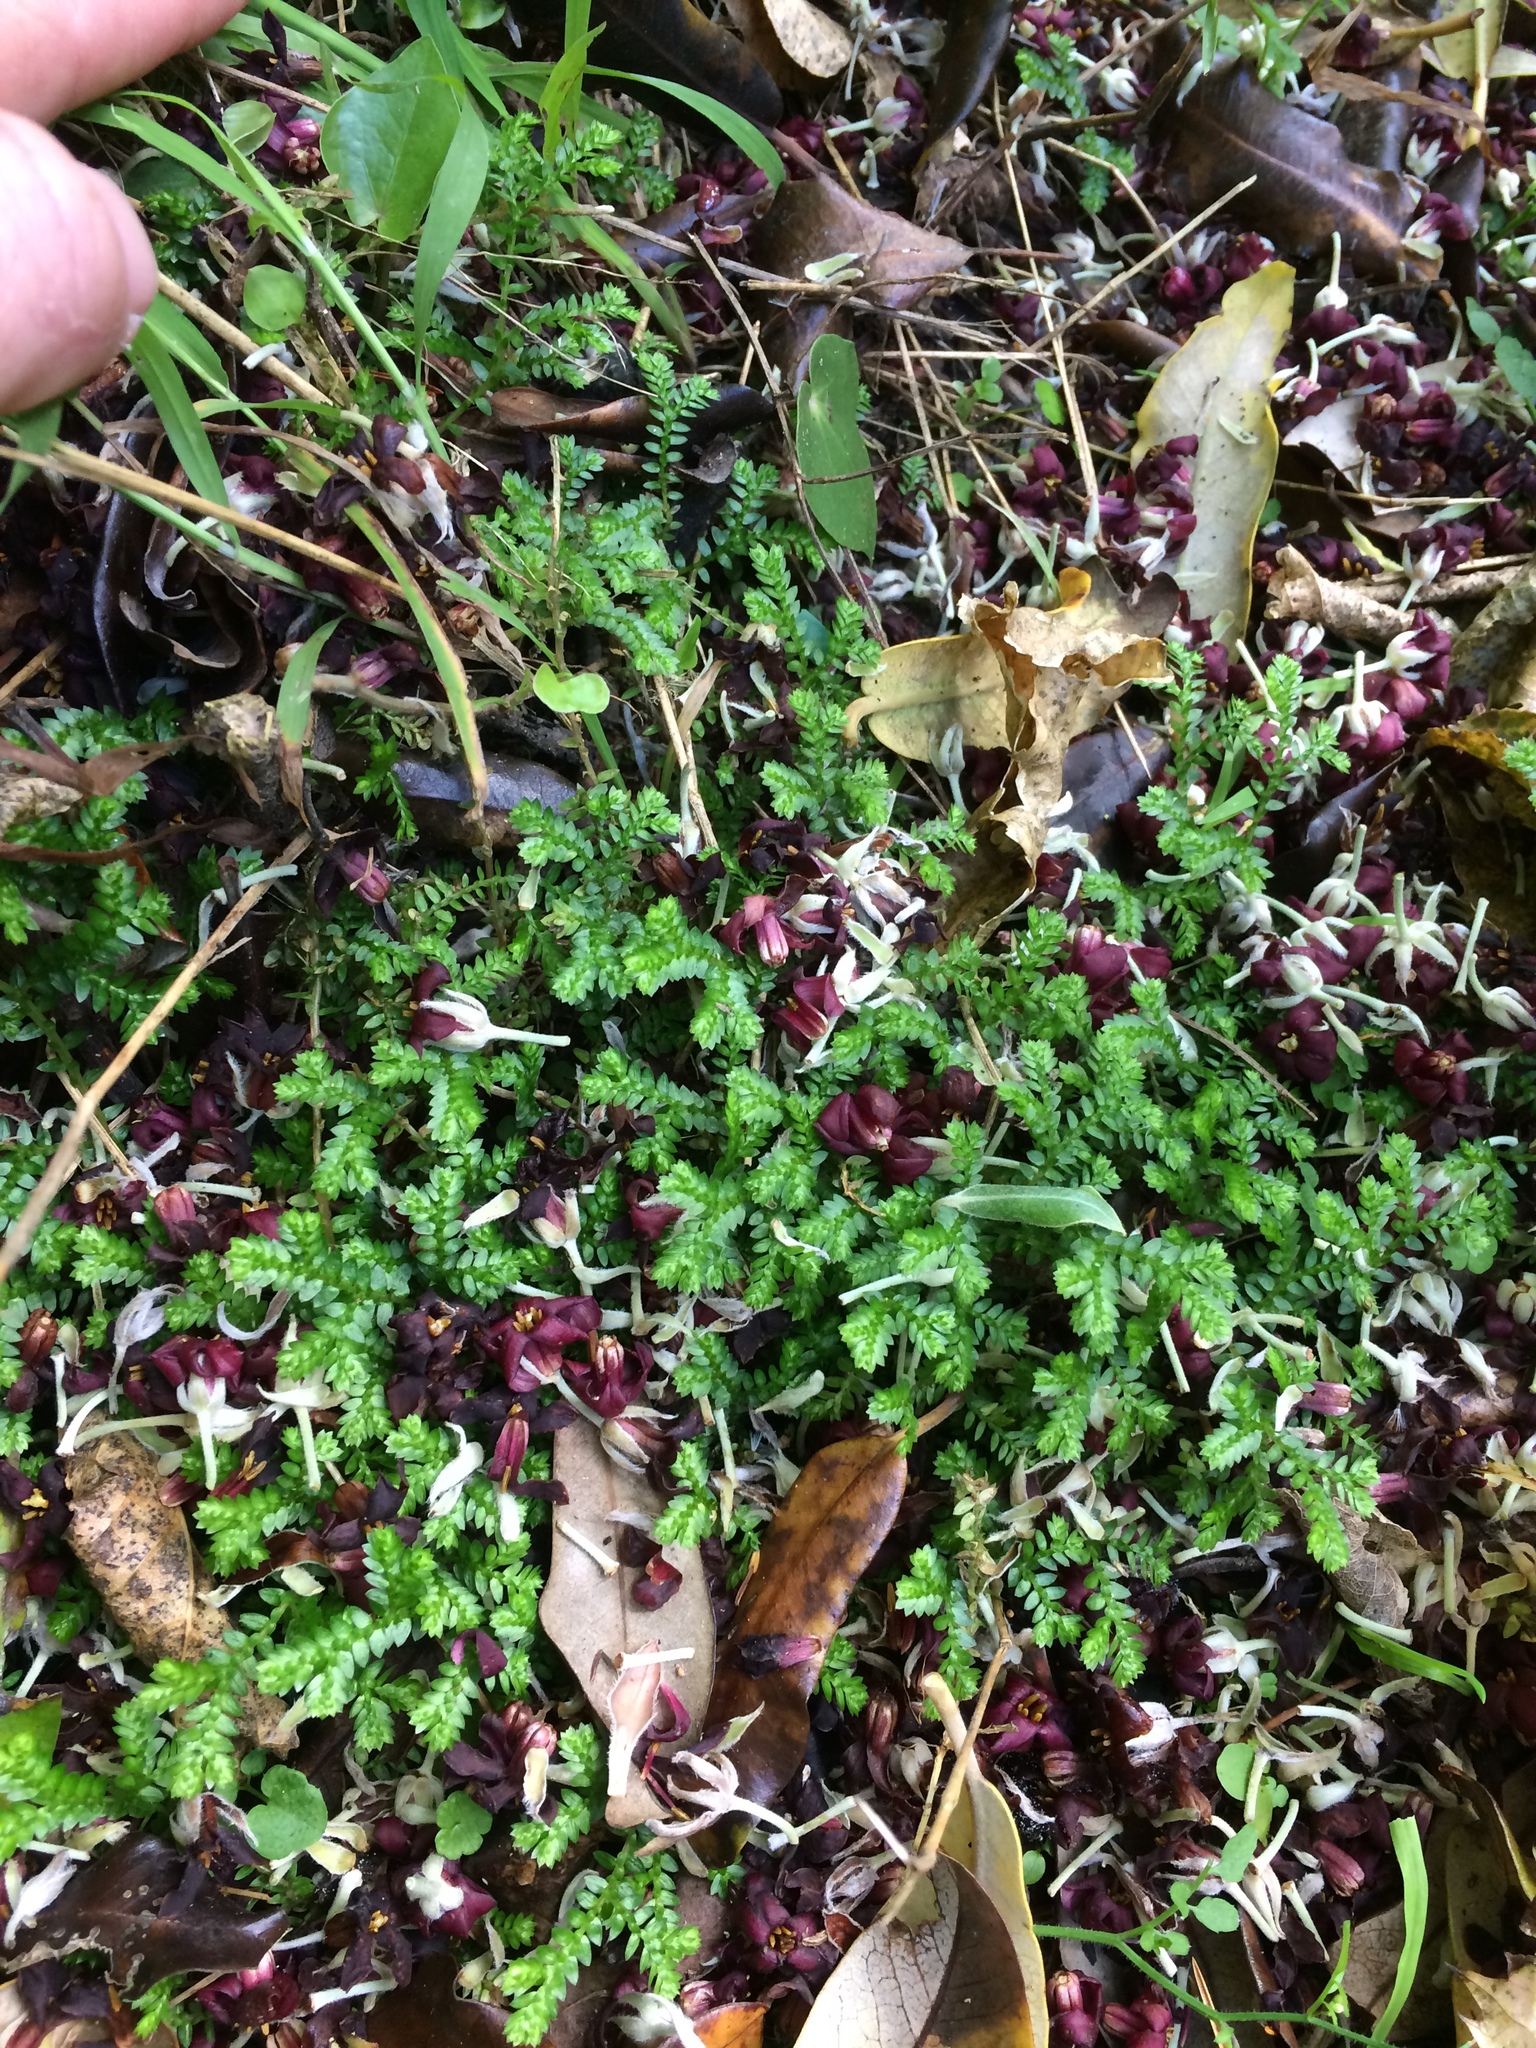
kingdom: Plantae
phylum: Tracheophyta
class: Lycopodiopsida
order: Selaginellales
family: Selaginellaceae
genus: Selaginella
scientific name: Selaginella kraussiana
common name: Krauss' spikemoss
